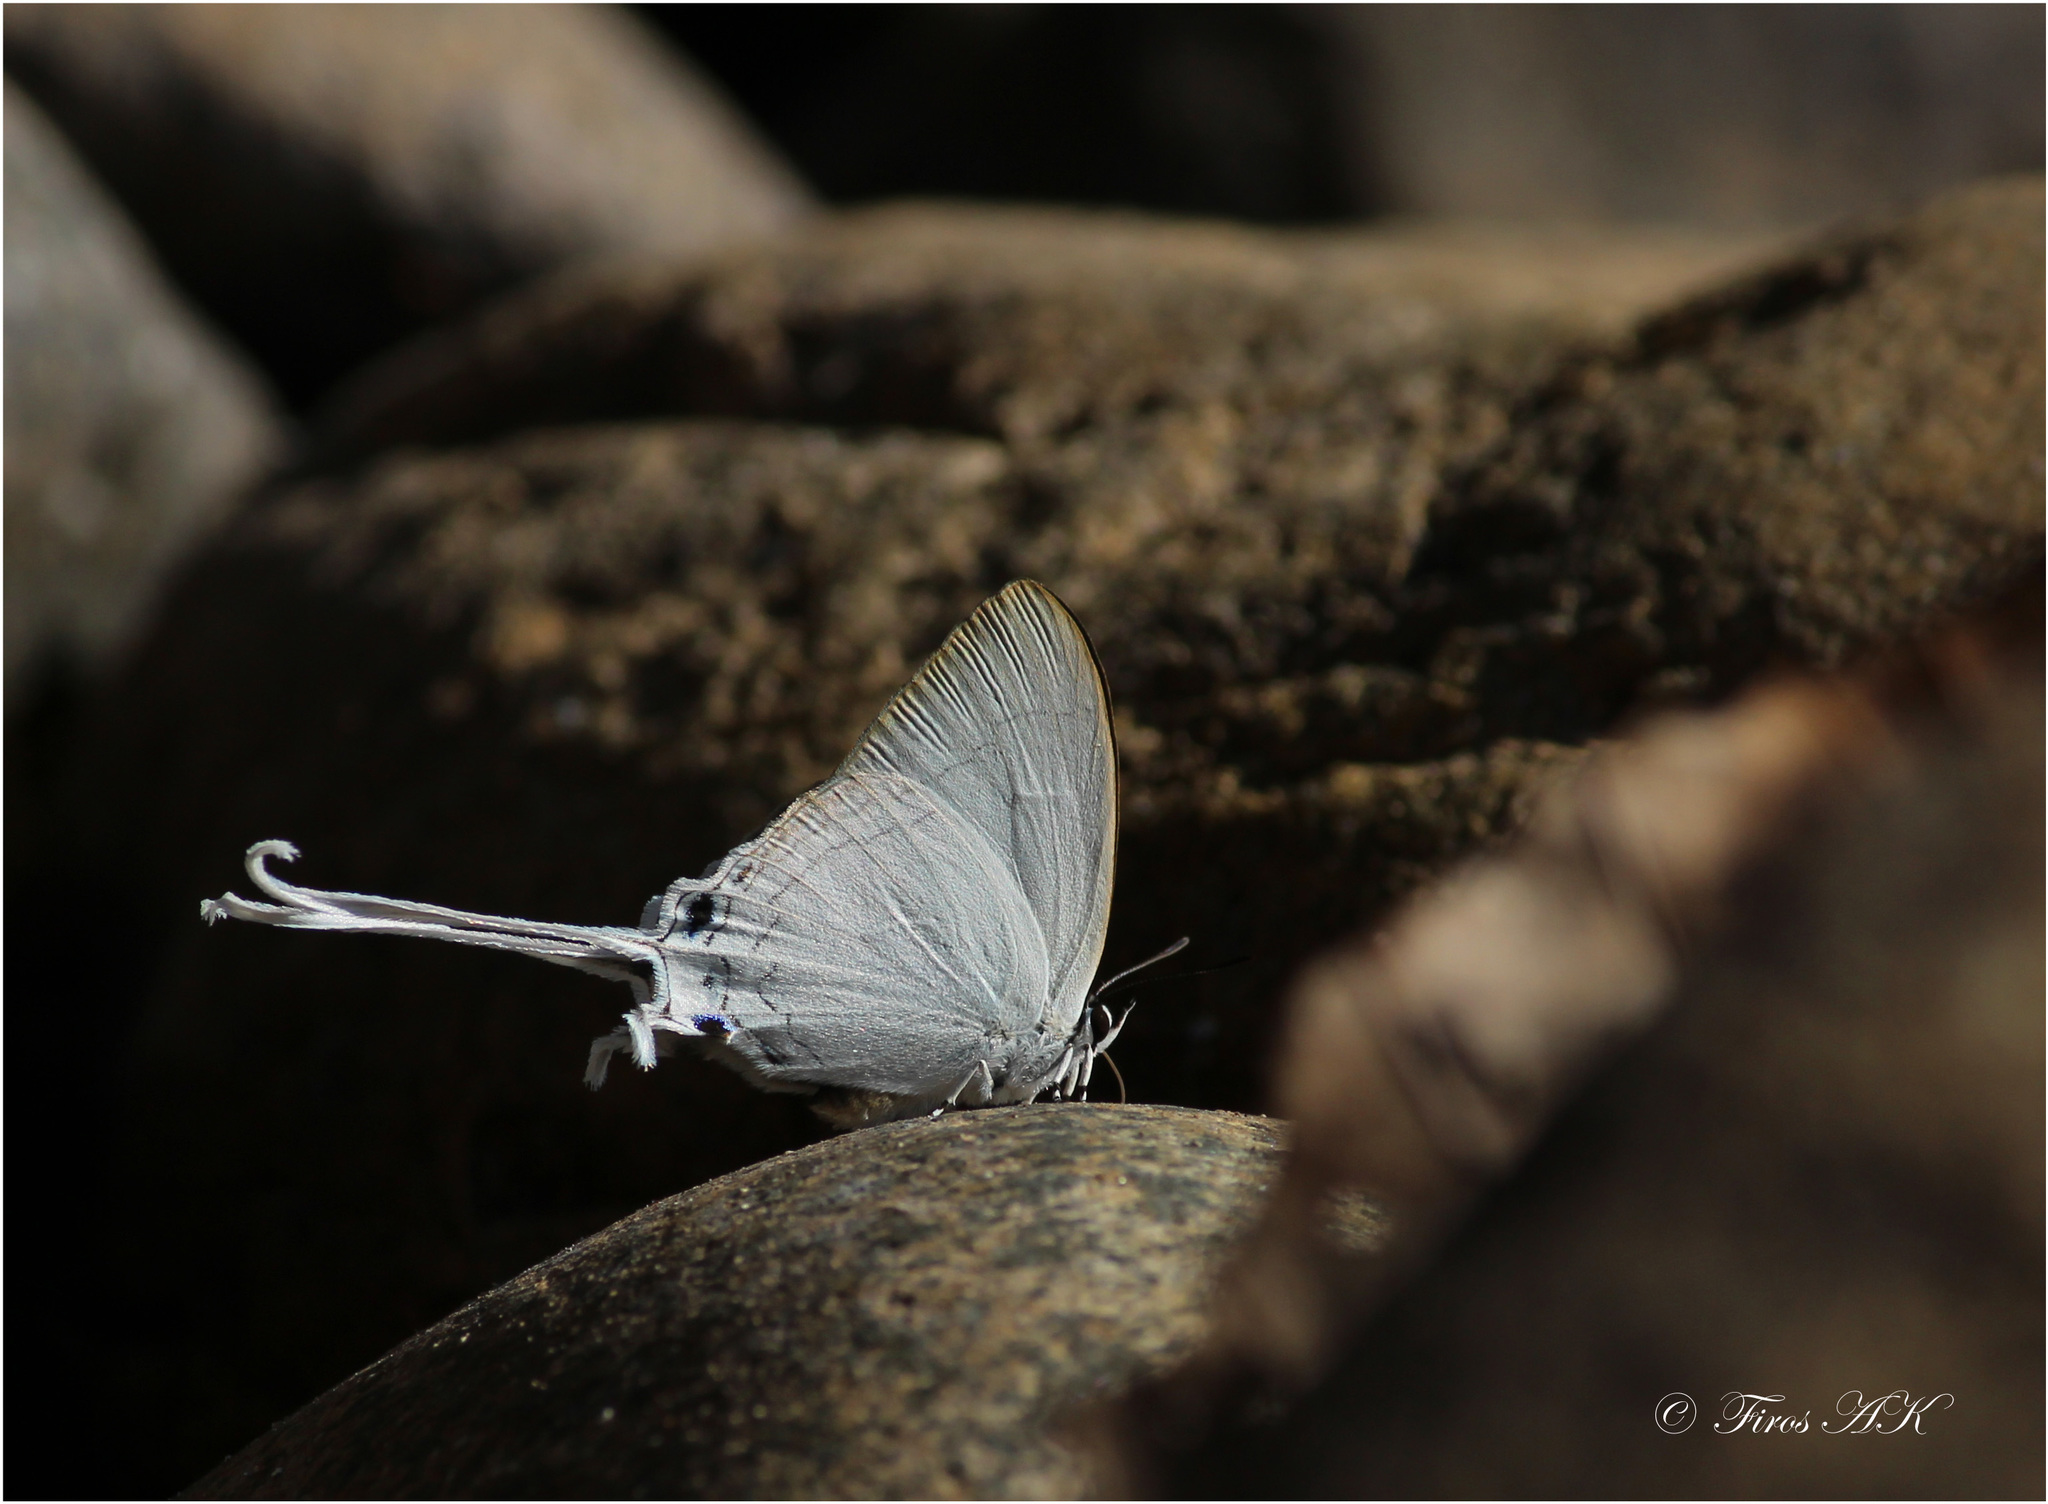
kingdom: Animalia
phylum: Arthropoda
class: Insecta
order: Lepidoptera
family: Lycaenidae
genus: Cheritra
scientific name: Cheritra freja
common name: Common imperial
